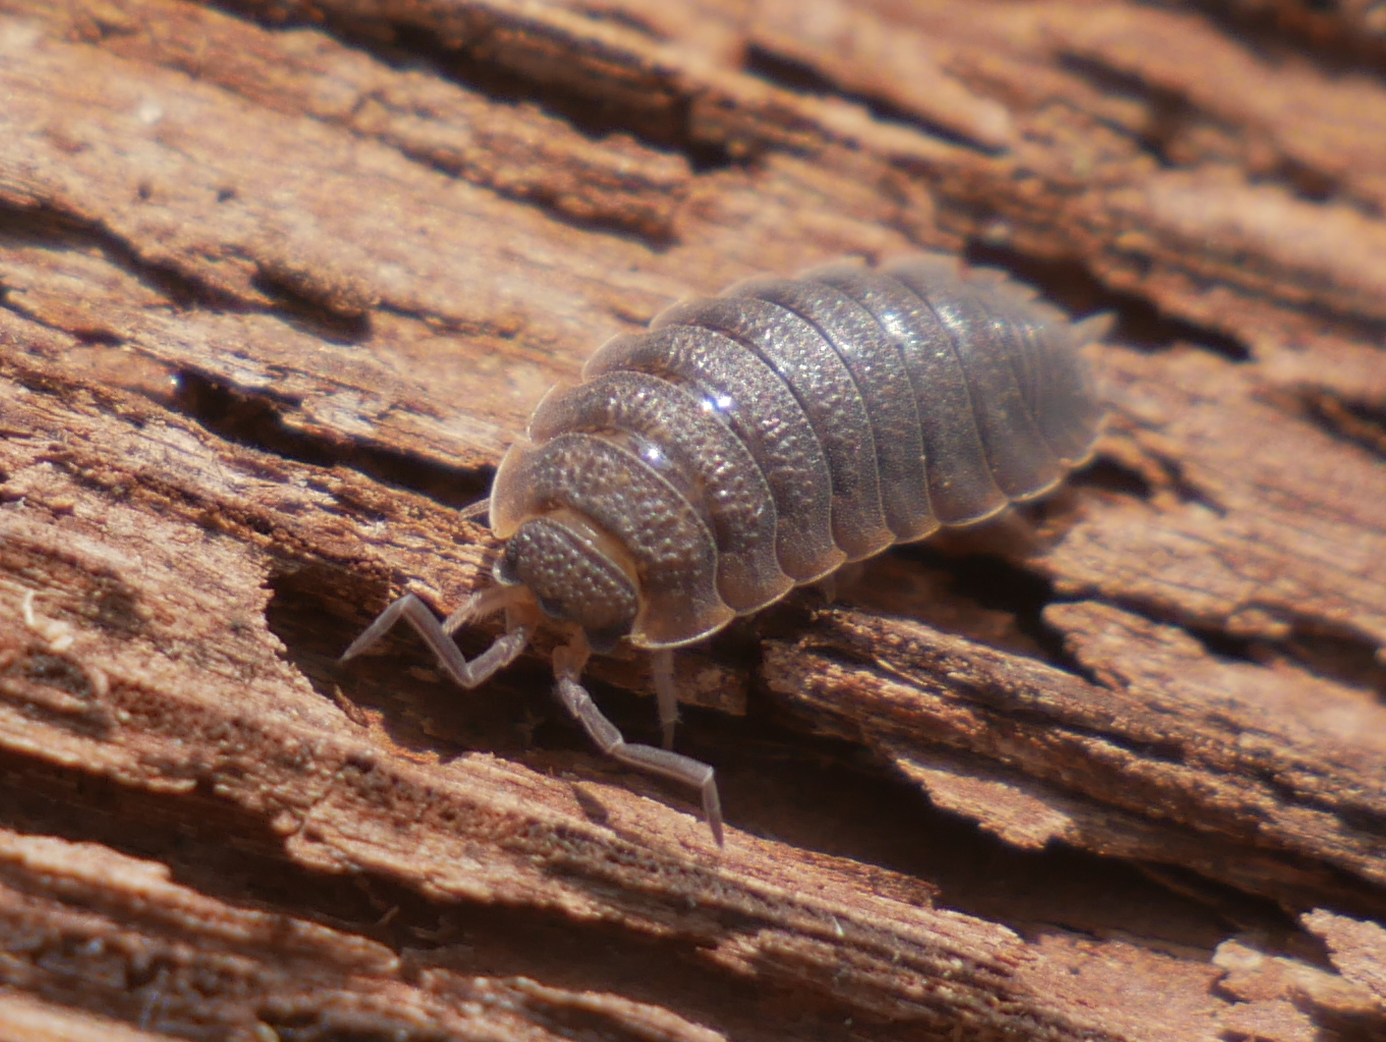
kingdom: Animalia
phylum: Arthropoda
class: Malacostraca
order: Isopoda
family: Porcellionidae
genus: Porcellio
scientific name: Porcellio scaber
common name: Common rough woodlouse
